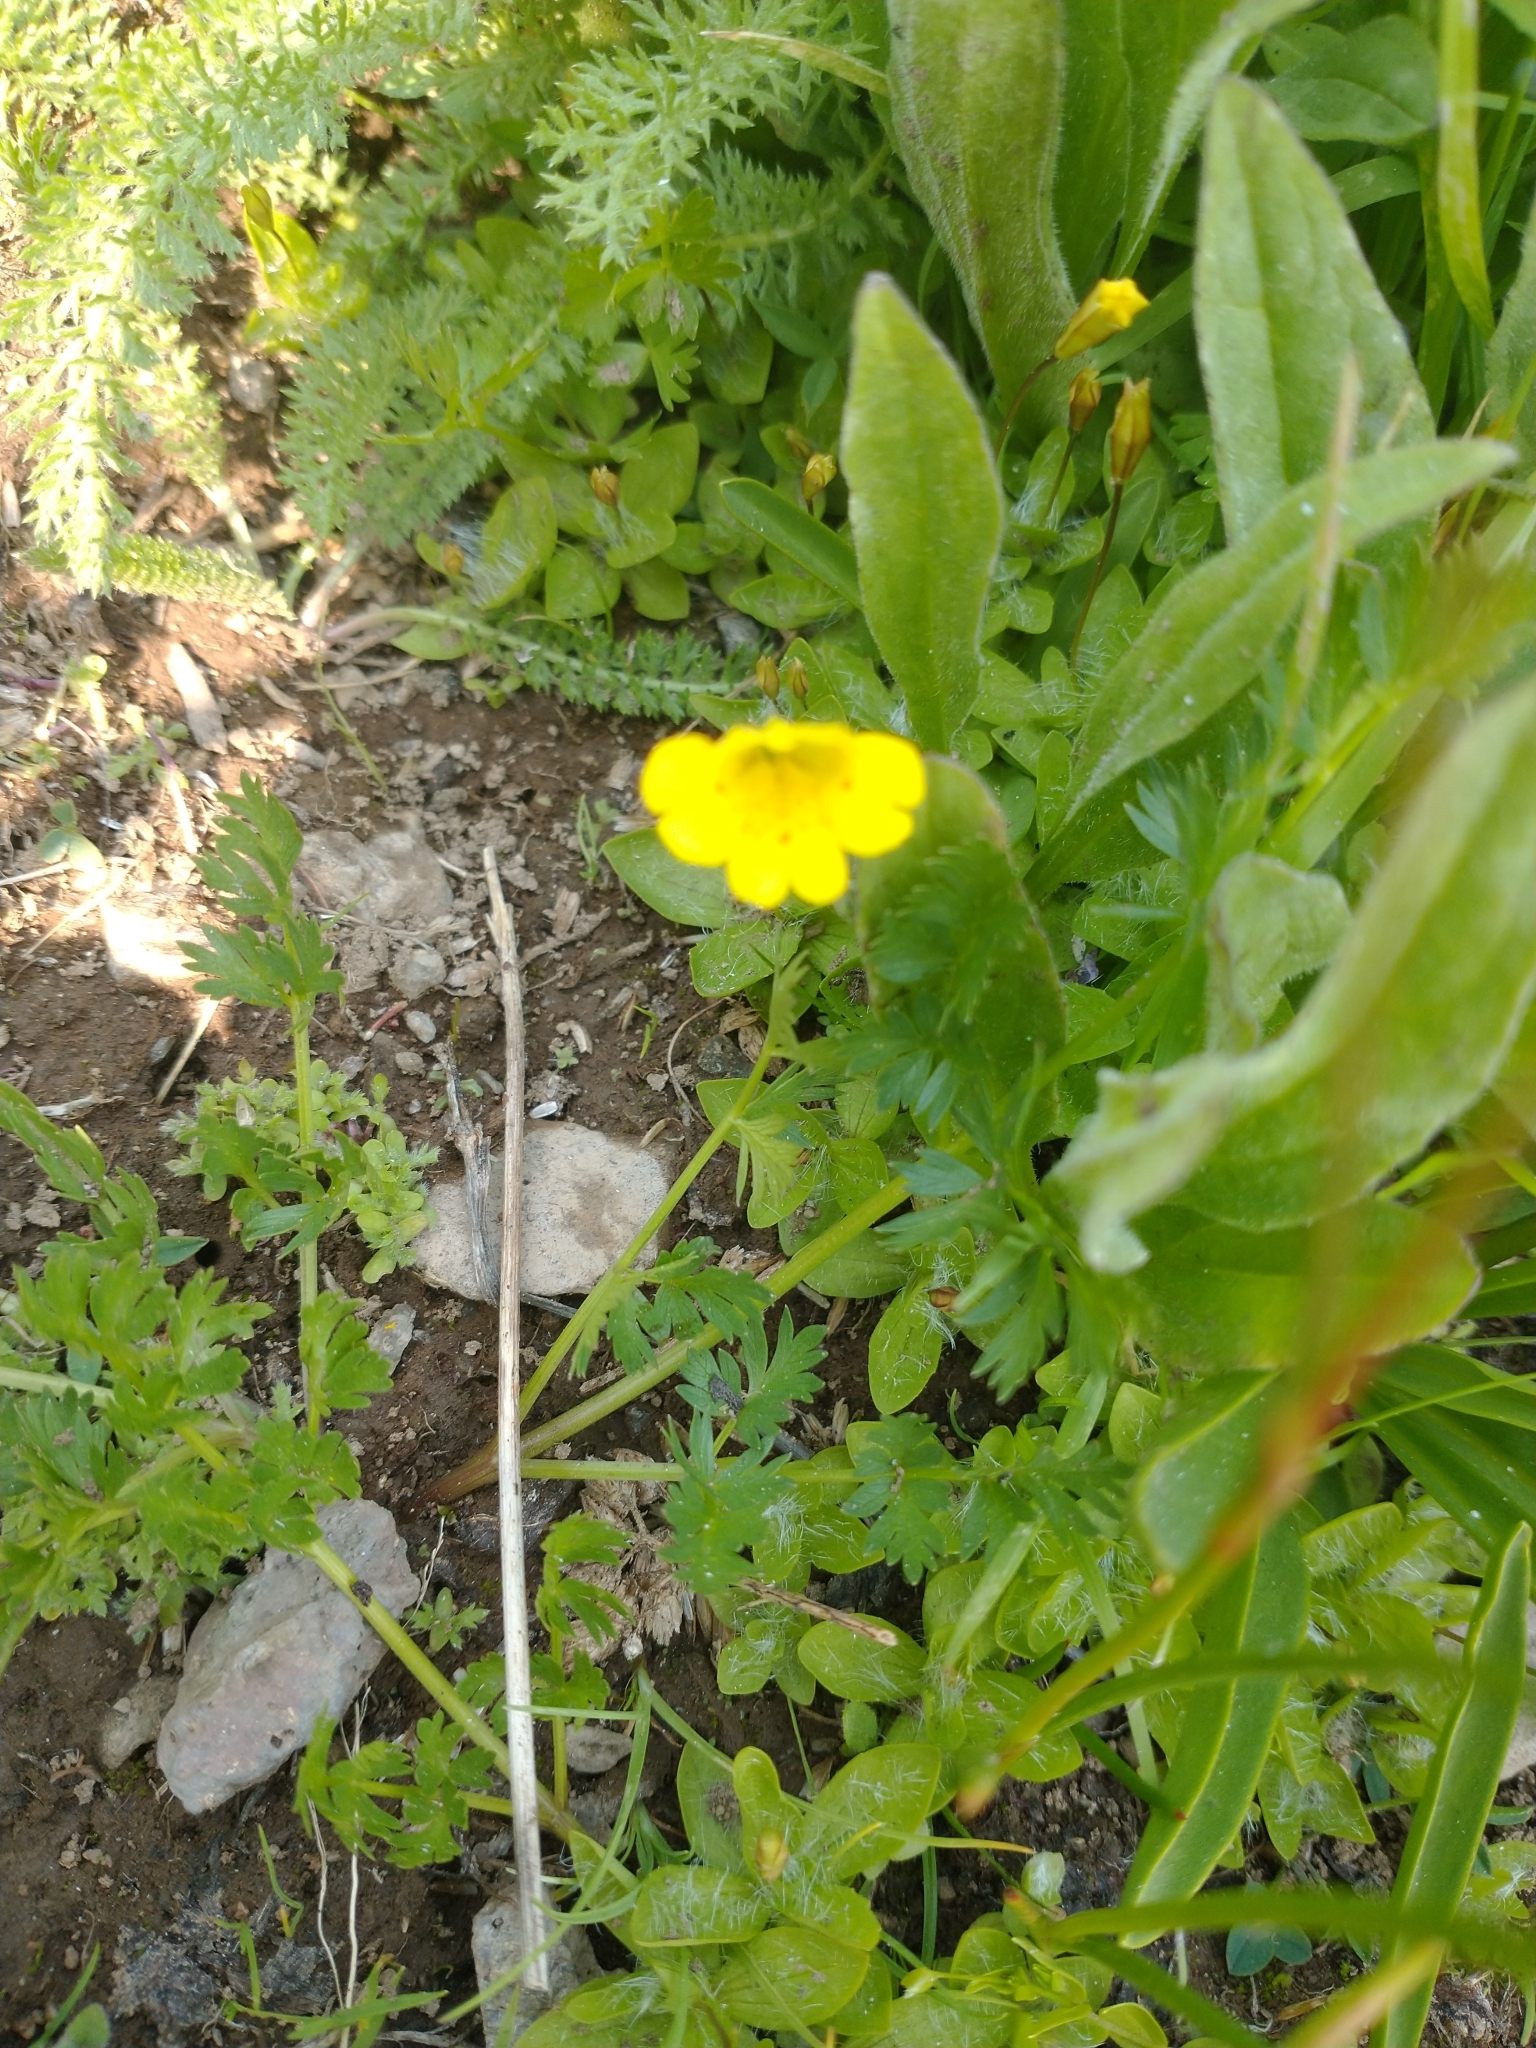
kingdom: Plantae
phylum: Tracheophyta
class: Magnoliopsida
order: Lamiales
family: Phrymaceae
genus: Erythranthe
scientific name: Erythranthe primuloides
